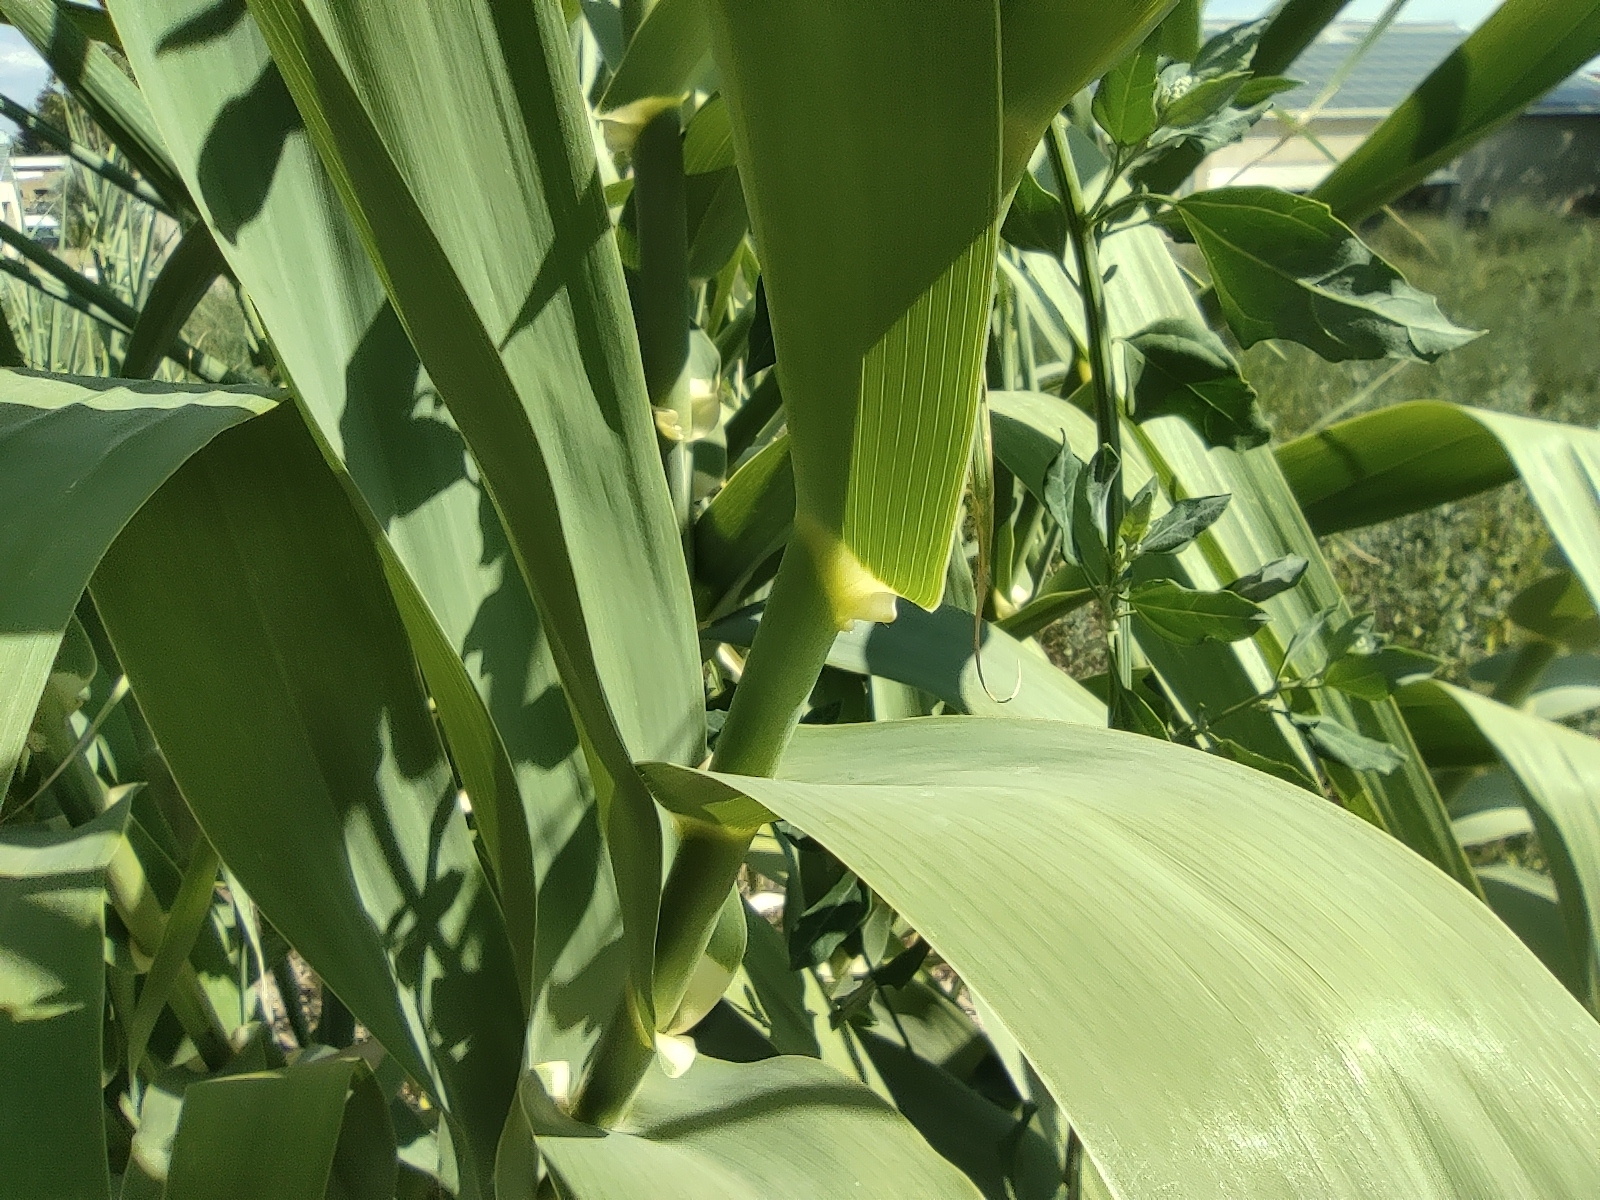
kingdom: Plantae
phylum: Tracheophyta
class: Liliopsida
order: Poales
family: Poaceae
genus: Arundo
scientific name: Arundo donax
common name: Giant reed
